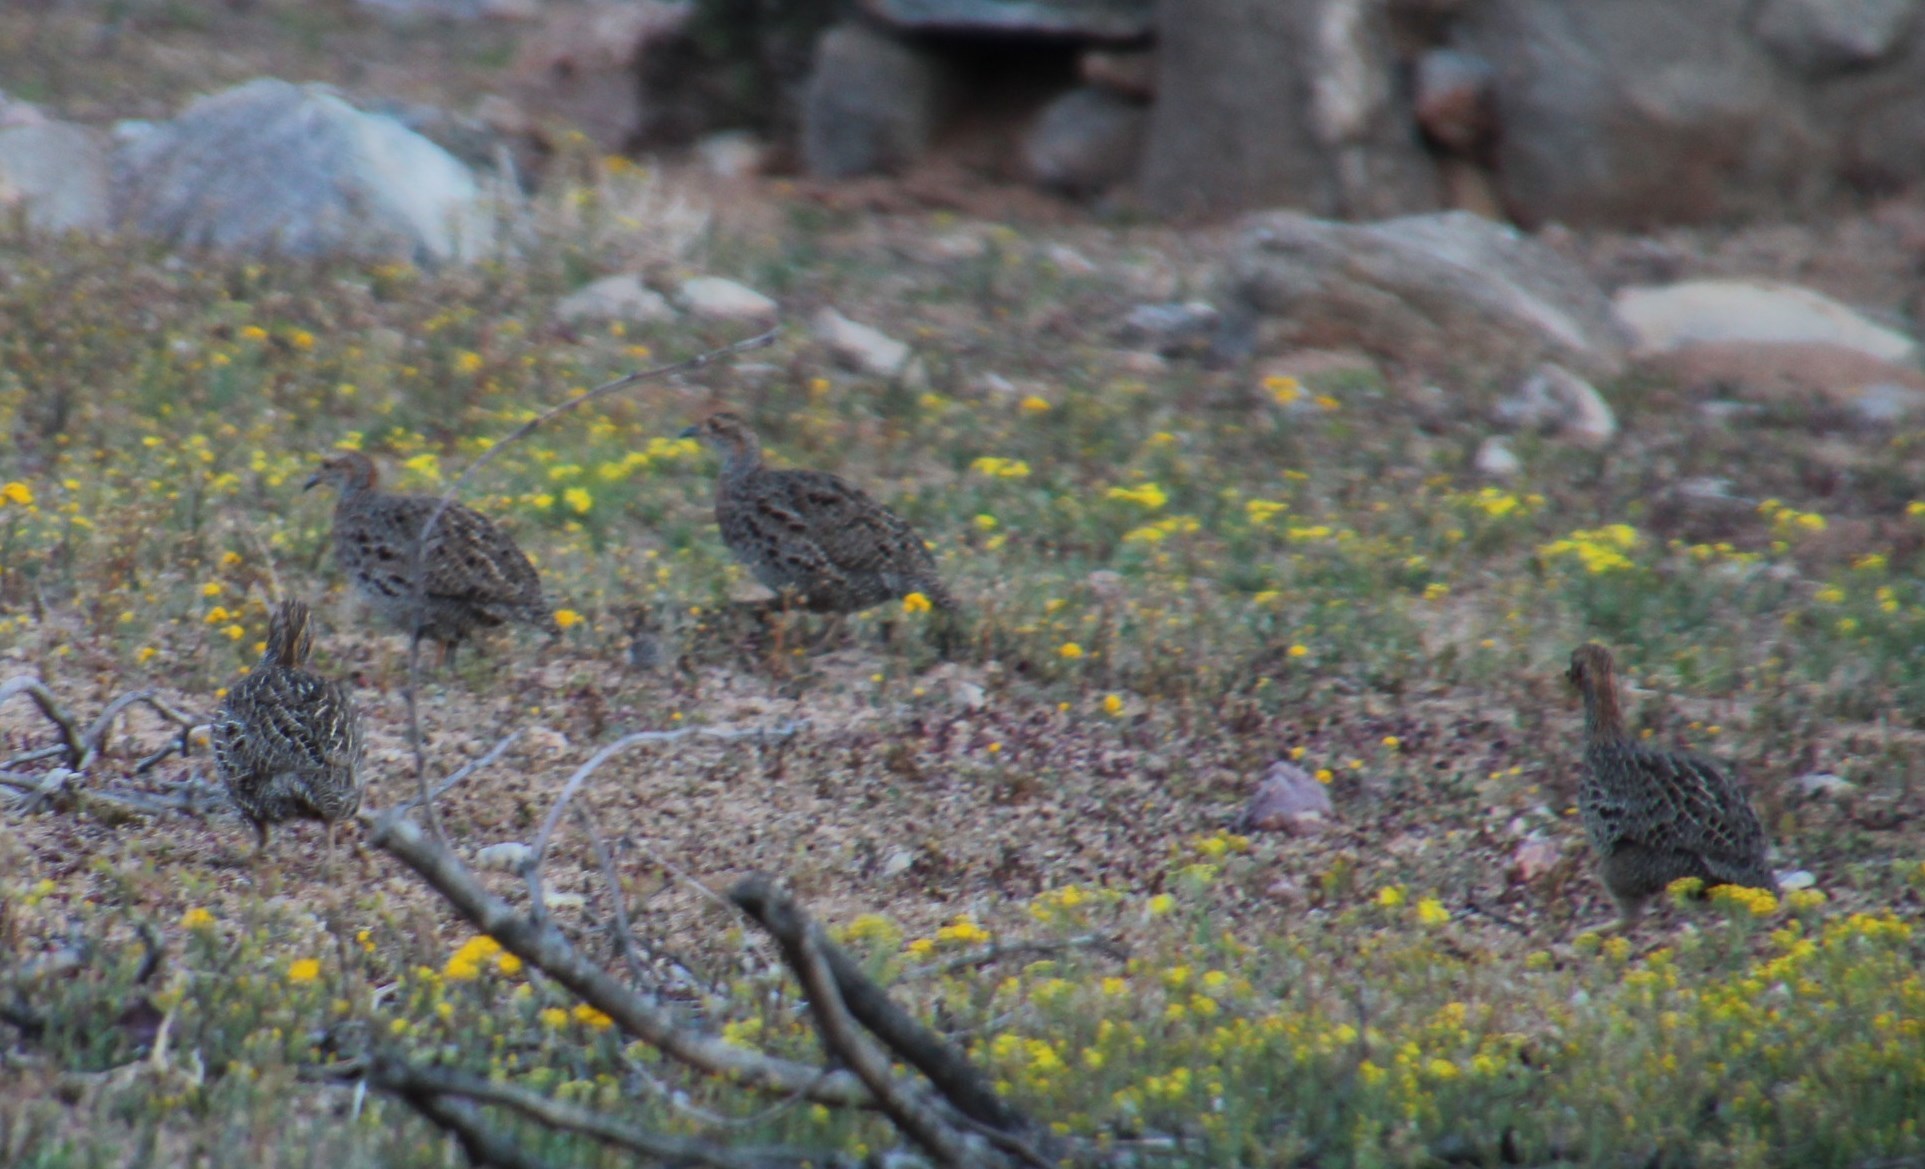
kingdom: Animalia
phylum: Chordata
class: Aves
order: Galliformes
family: Phasianidae
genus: Scleroptila
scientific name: Scleroptila afra
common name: Grey-winged francolin
